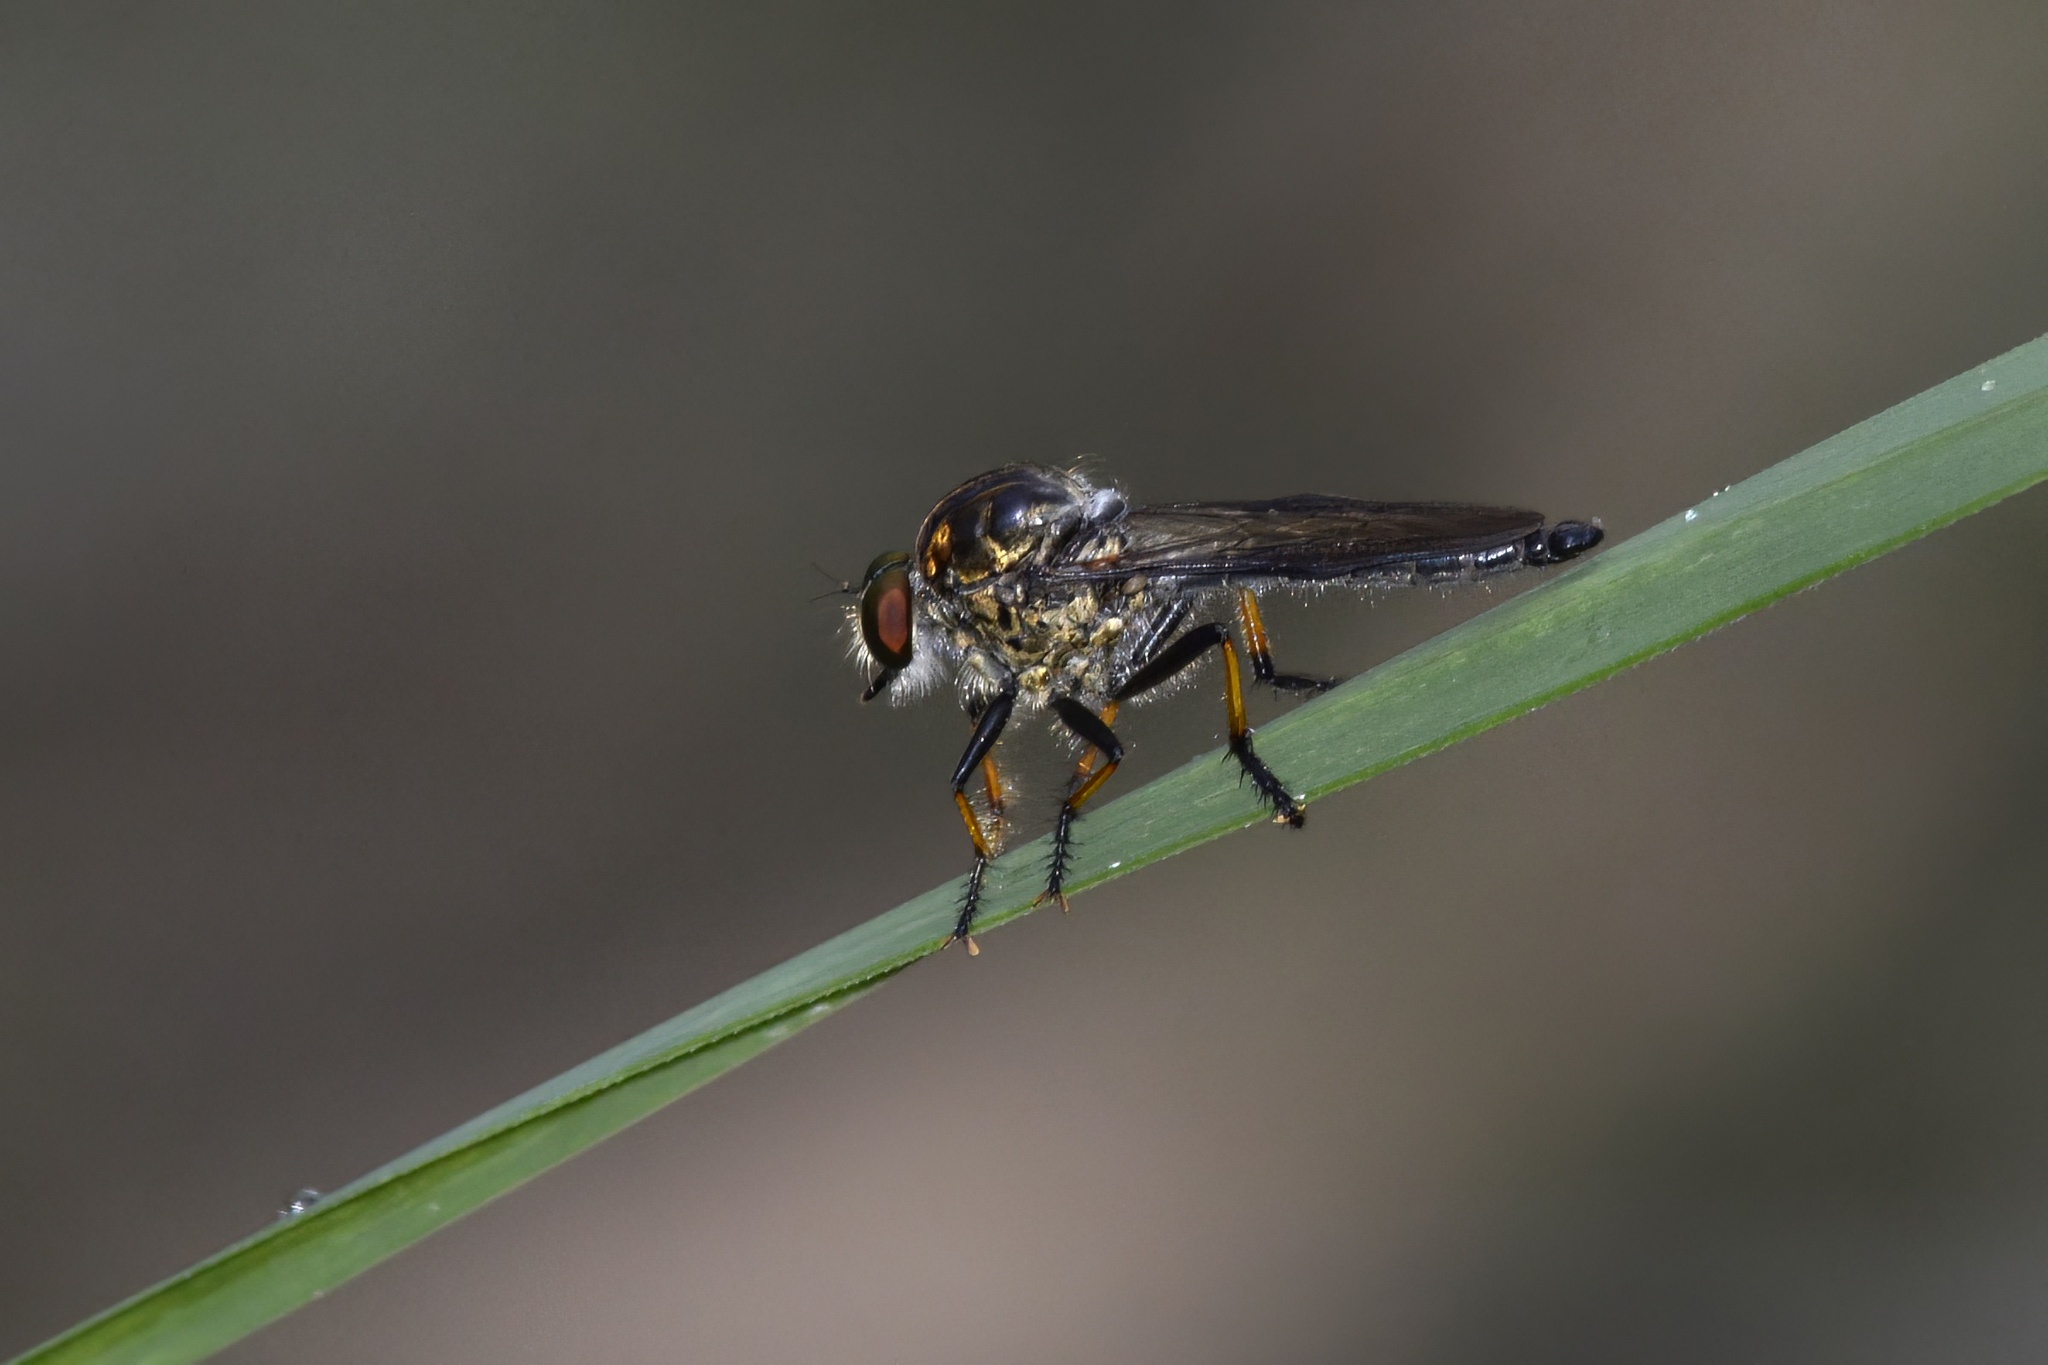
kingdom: Animalia
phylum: Arthropoda
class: Insecta
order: Diptera
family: Asilidae
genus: Ommatius
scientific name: Ommatius coeraebus
